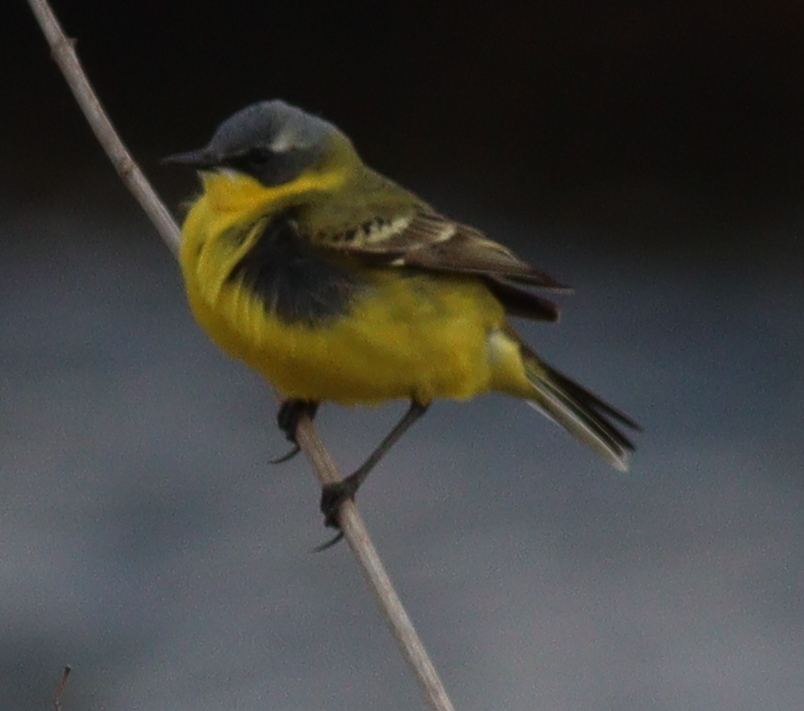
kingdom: Animalia
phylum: Chordata
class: Aves
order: Passeriformes
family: Motacillidae
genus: Motacilla
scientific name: Motacilla flava
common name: Western yellow wagtail
